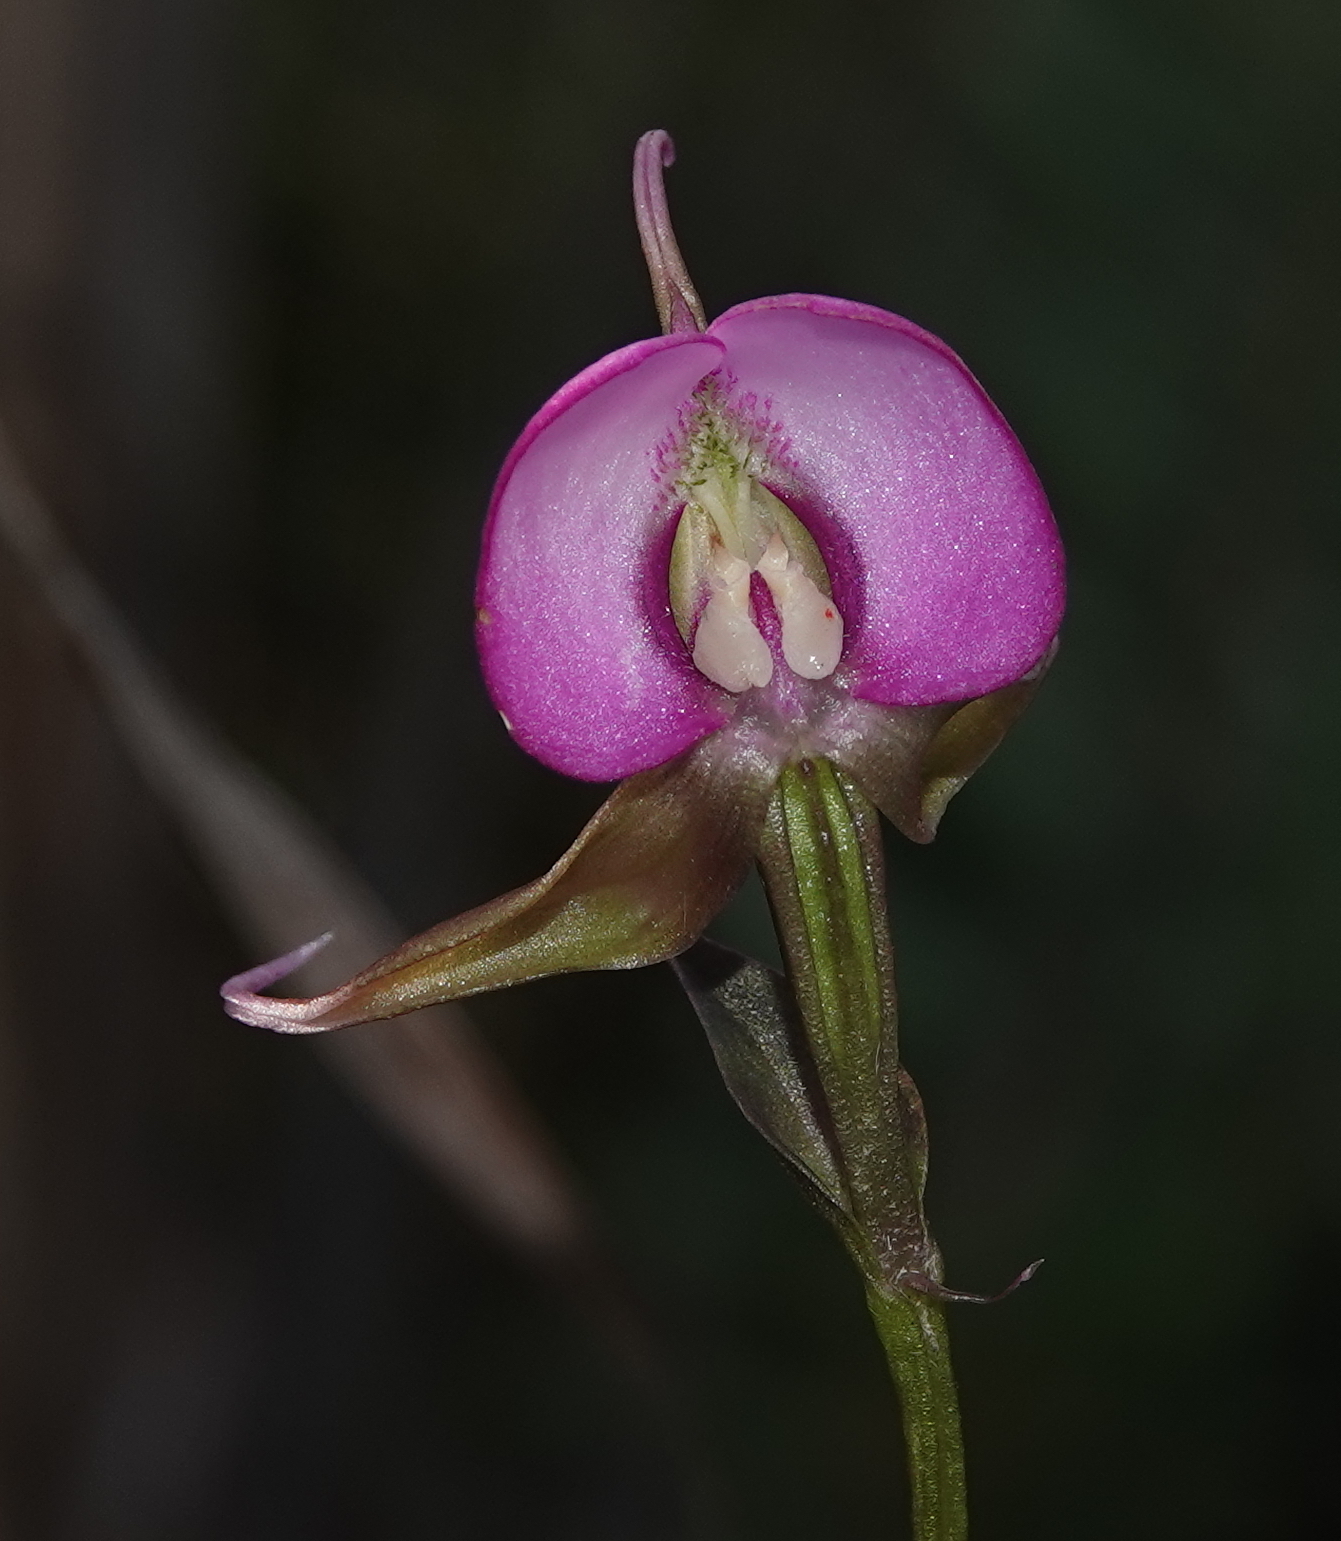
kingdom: Plantae
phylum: Tracheophyta
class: Liliopsida
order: Asparagales
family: Orchidaceae
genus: Disperis
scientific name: Disperis capensis
